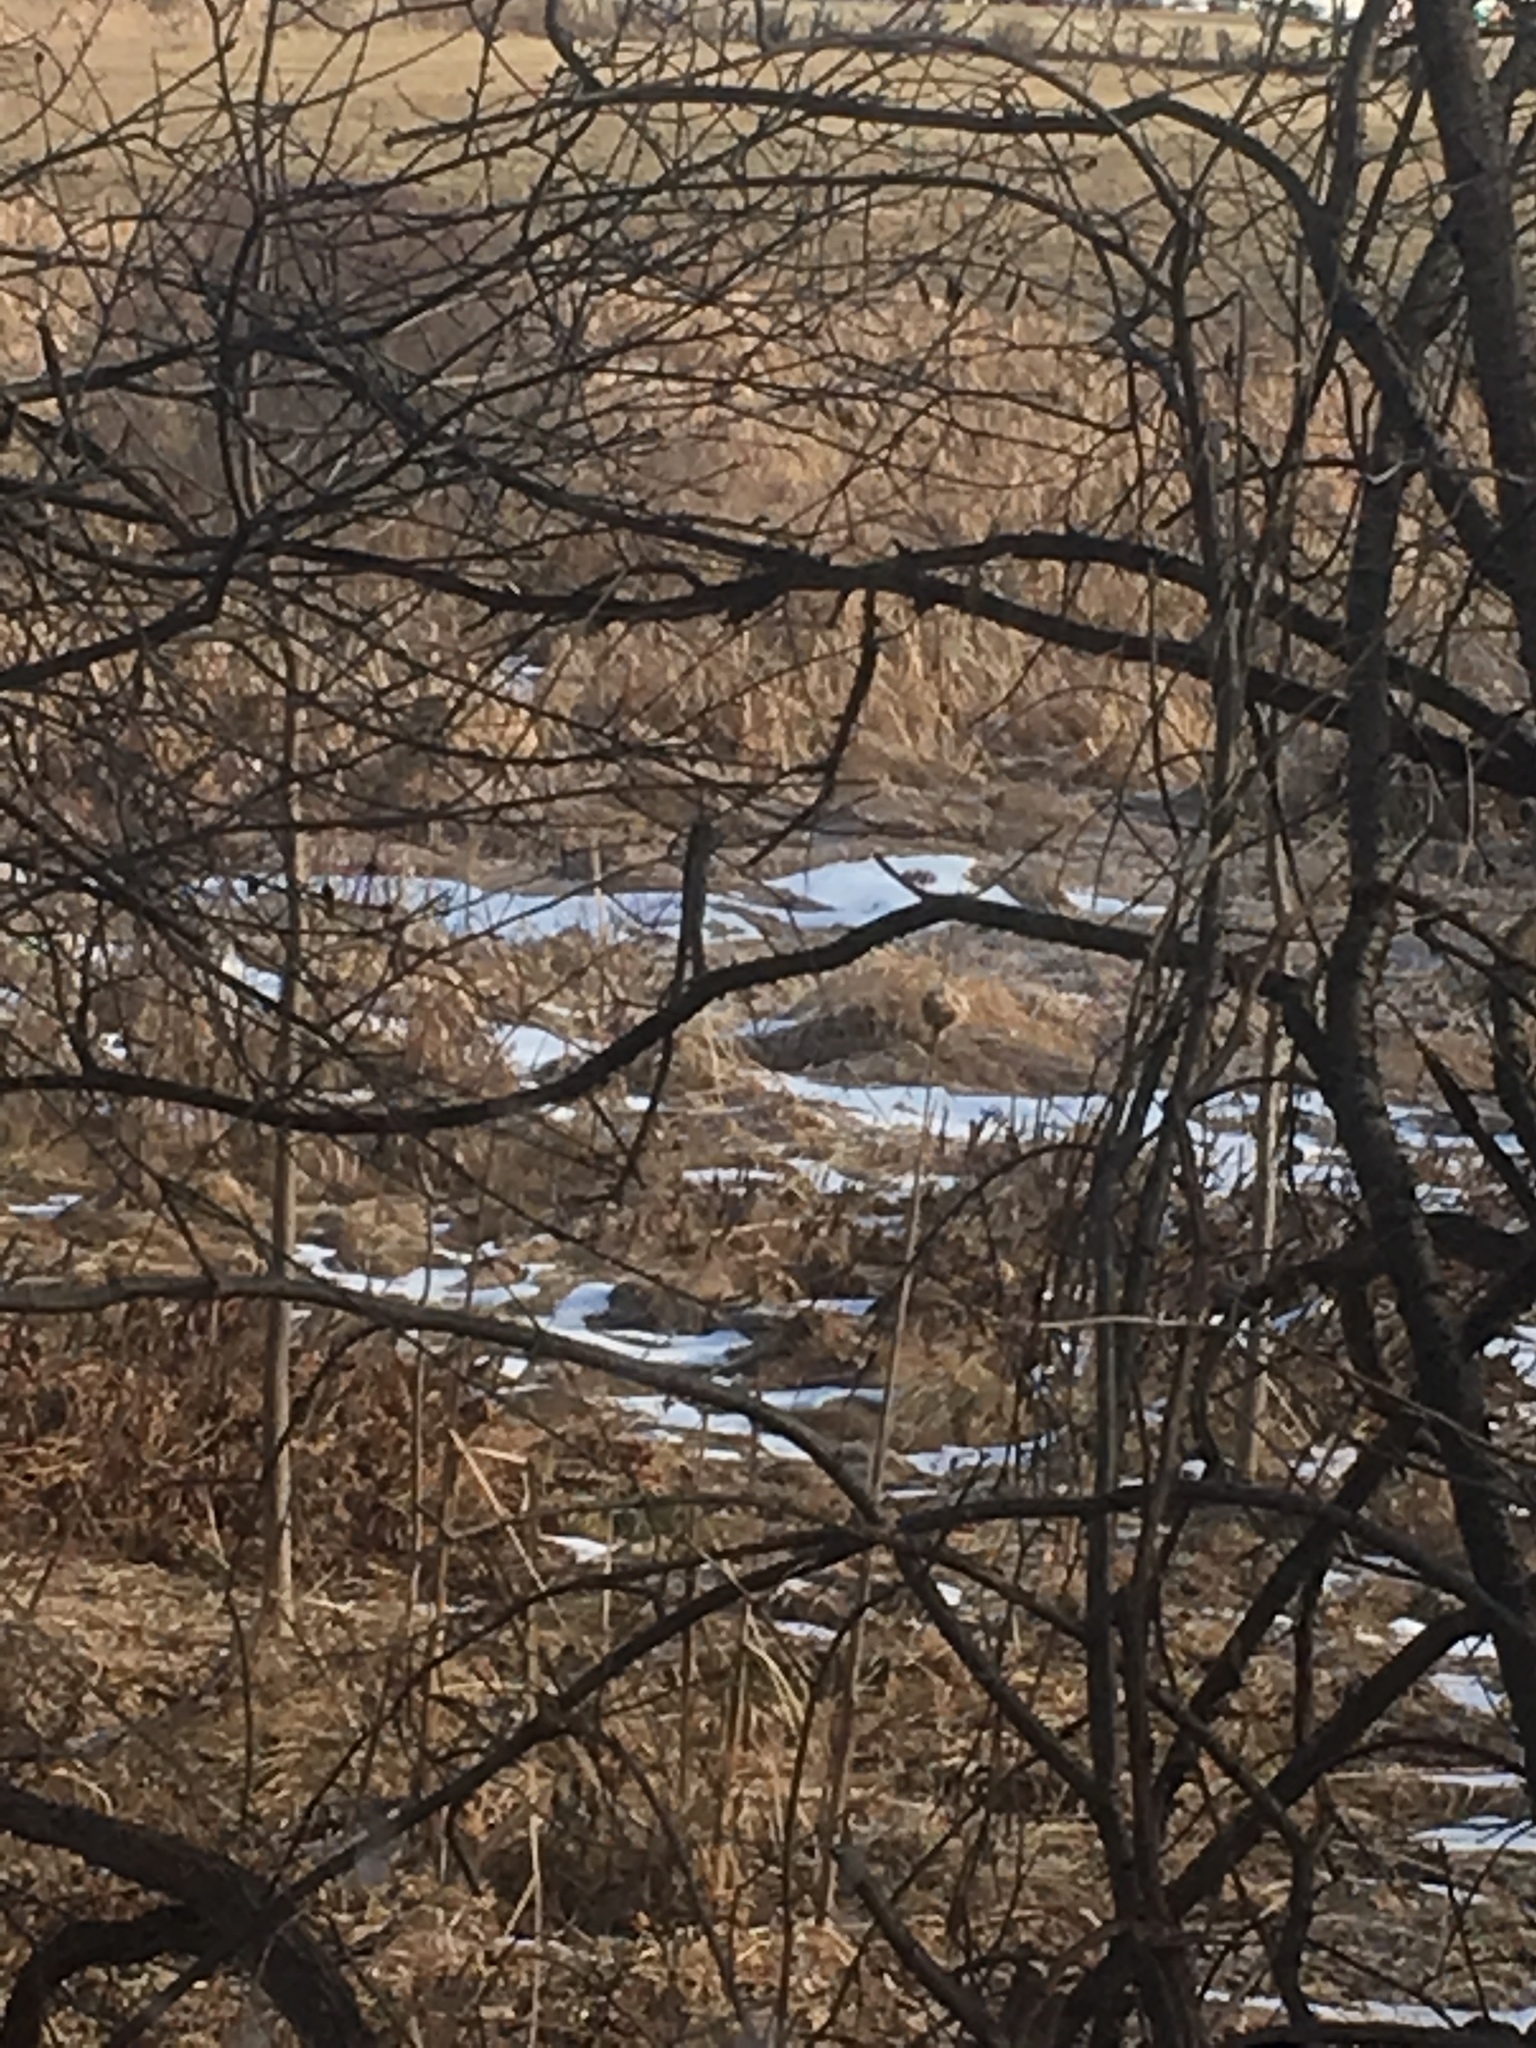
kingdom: Plantae
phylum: Tracheophyta
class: Liliopsida
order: Poales
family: Typhaceae
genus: Typha
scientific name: Typha
